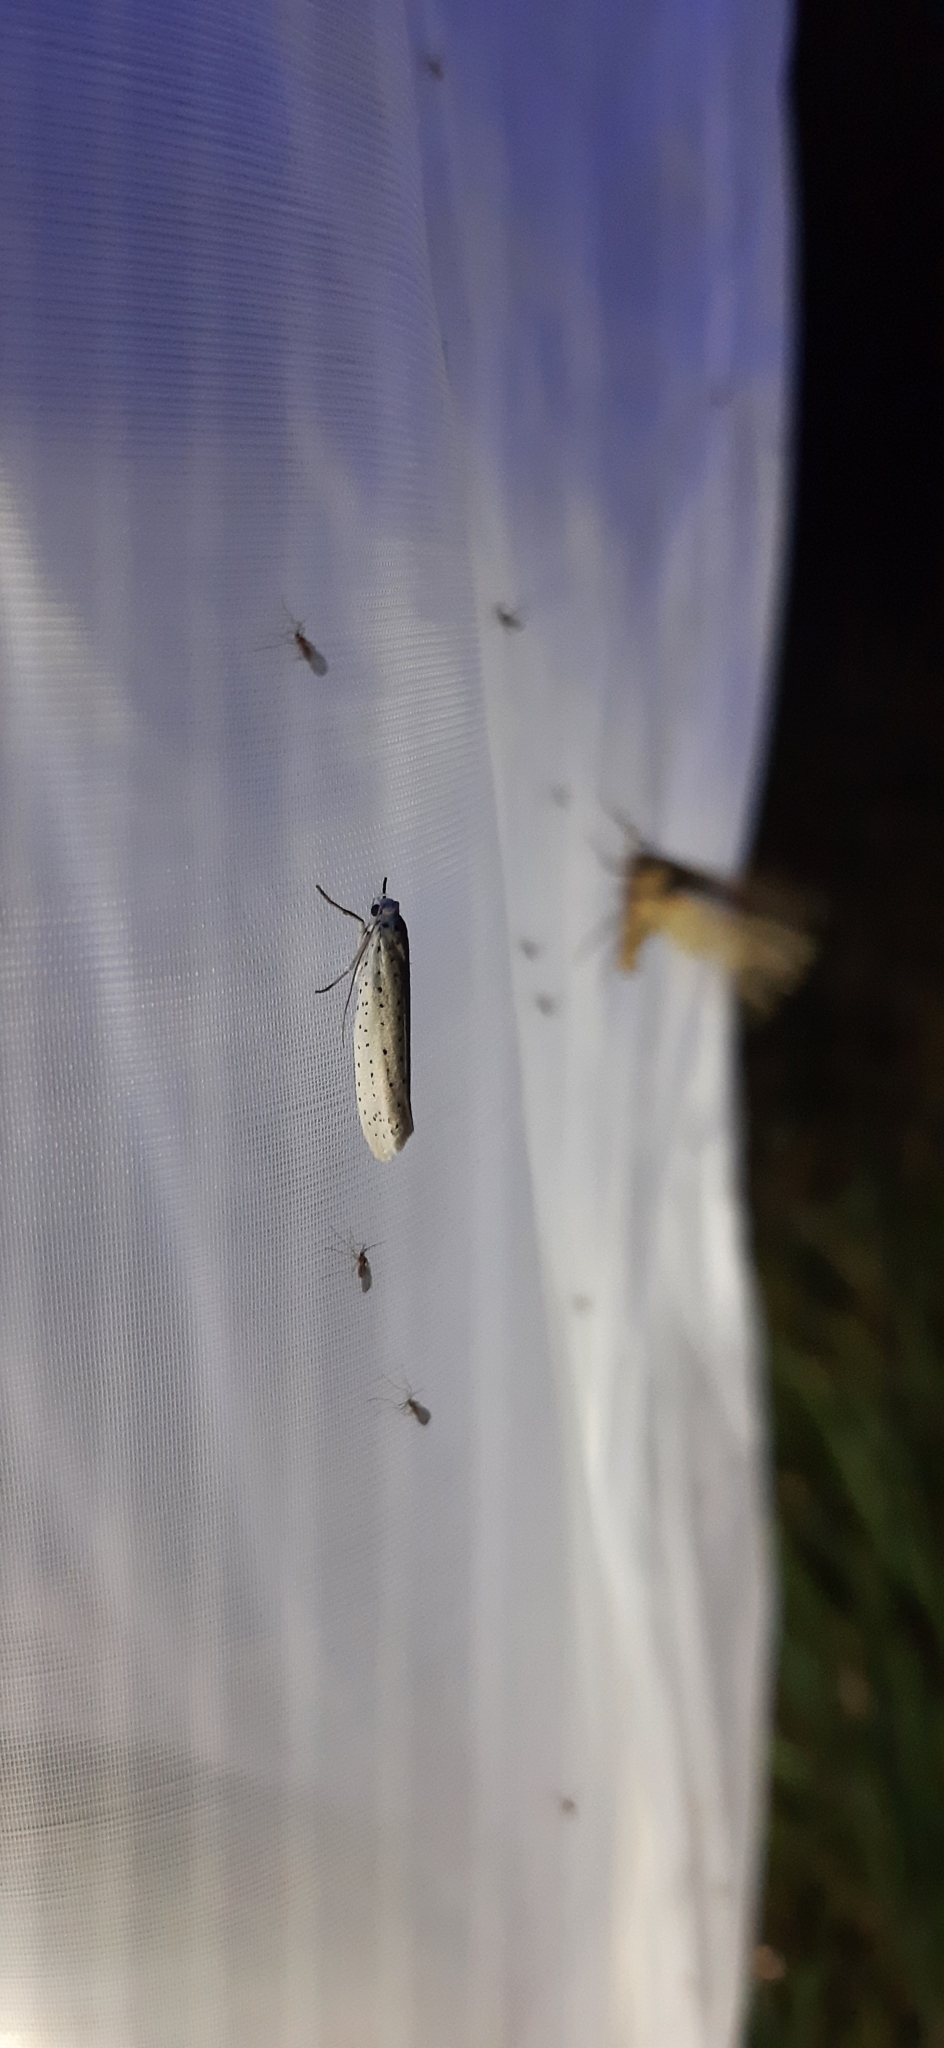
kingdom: Animalia
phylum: Arthropoda
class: Insecta
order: Lepidoptera
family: Yponomeutidae
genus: Yponomeuta
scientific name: Yponomeuta evonymella
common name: Bird-cherry ermine
